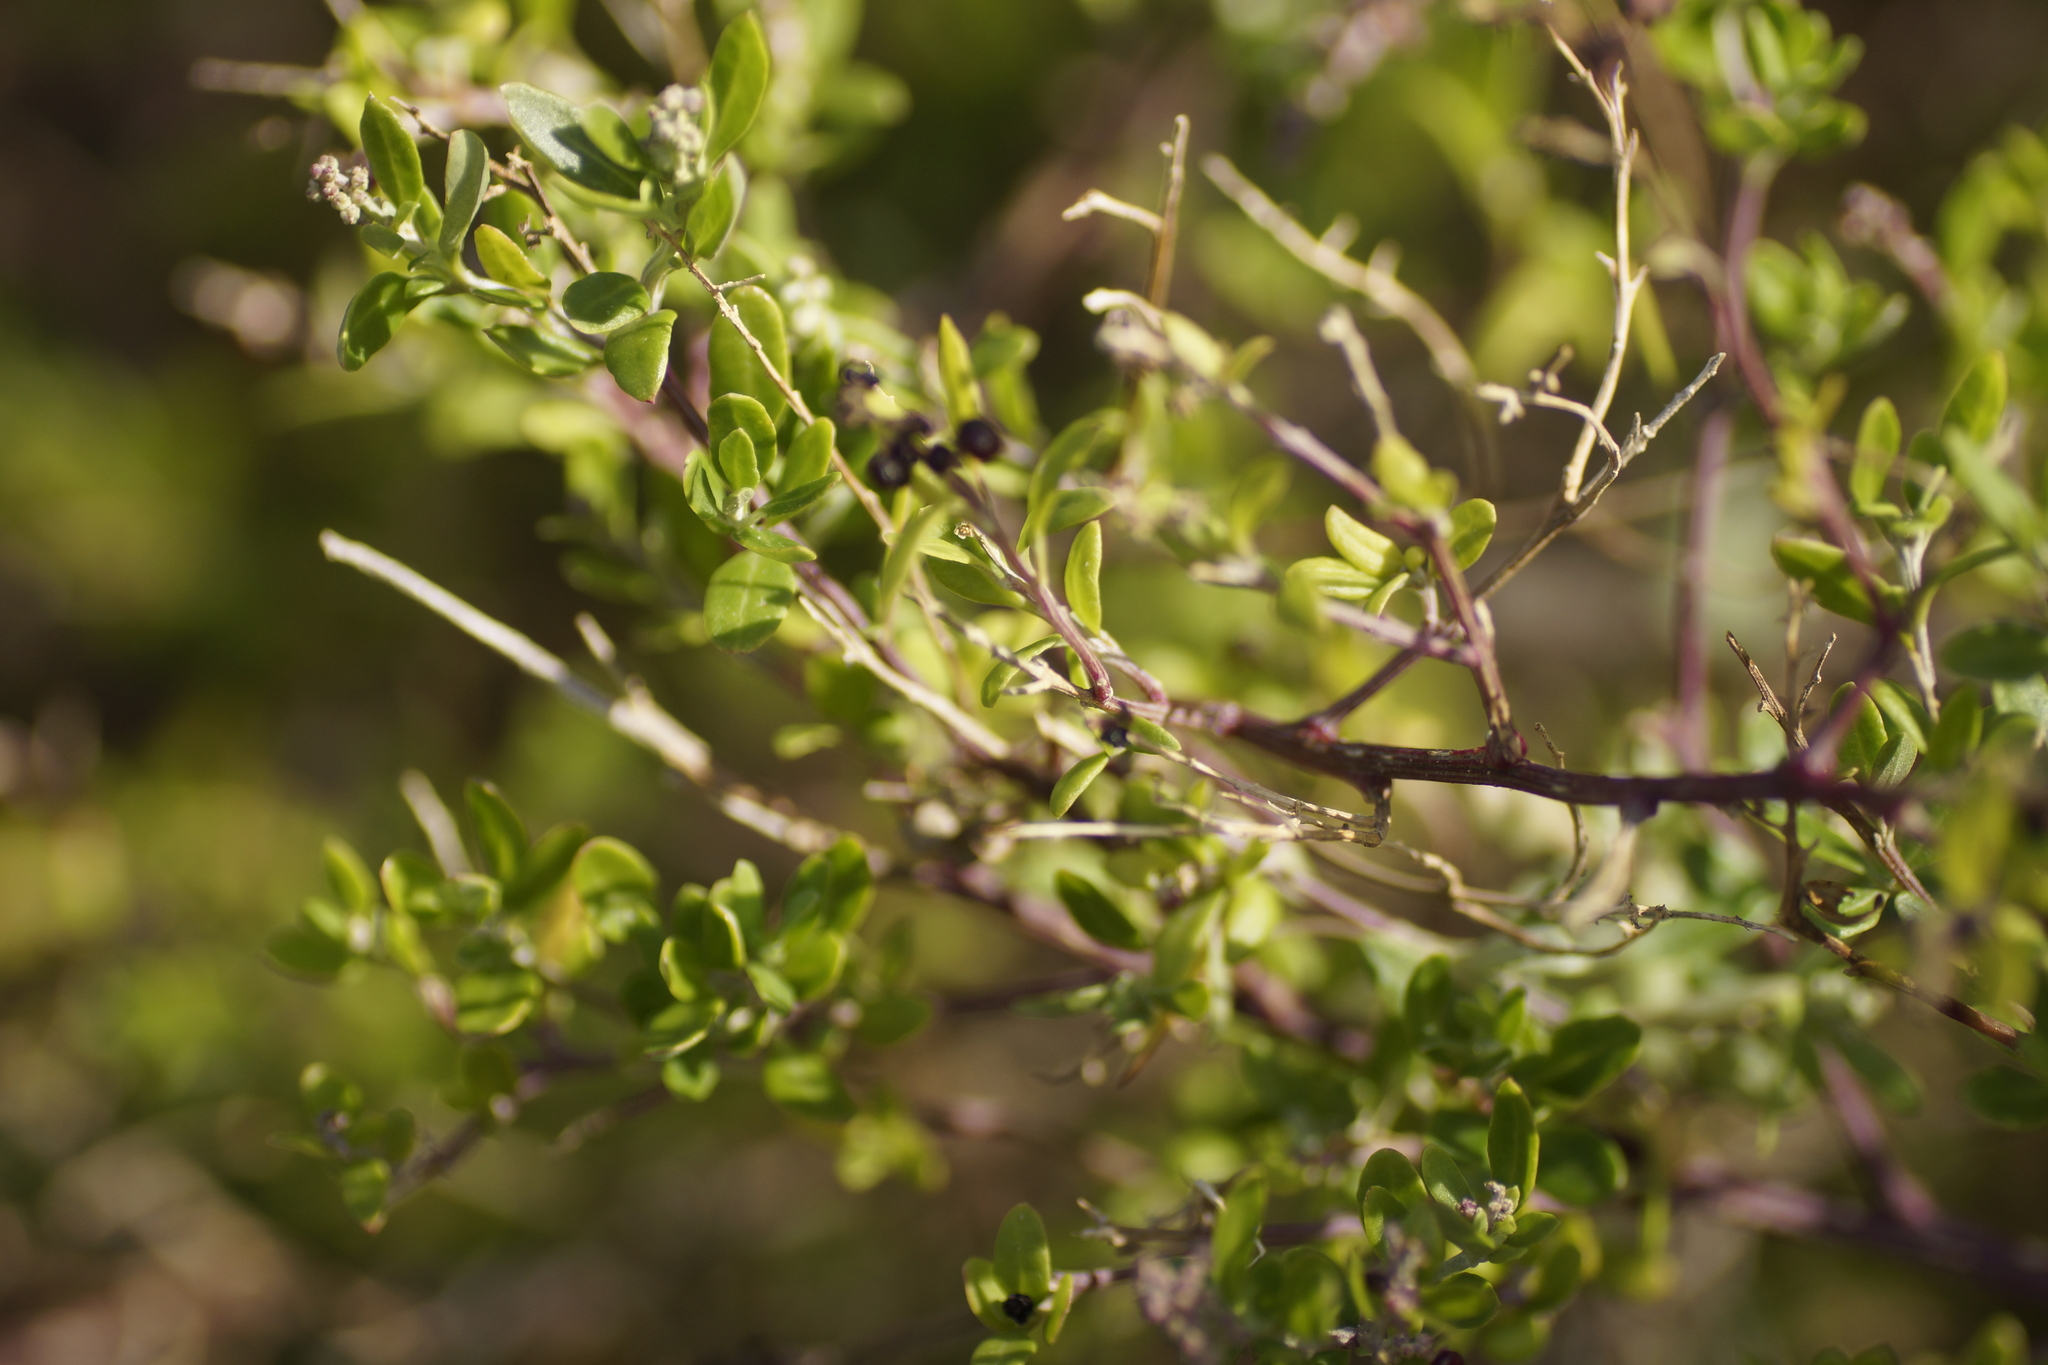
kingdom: Plantae
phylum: Tracheophyta
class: Magnoliopsida
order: Caryophyllales
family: Amaranthaceae
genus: Chenopodium
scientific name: Chenopodium candolleanum
